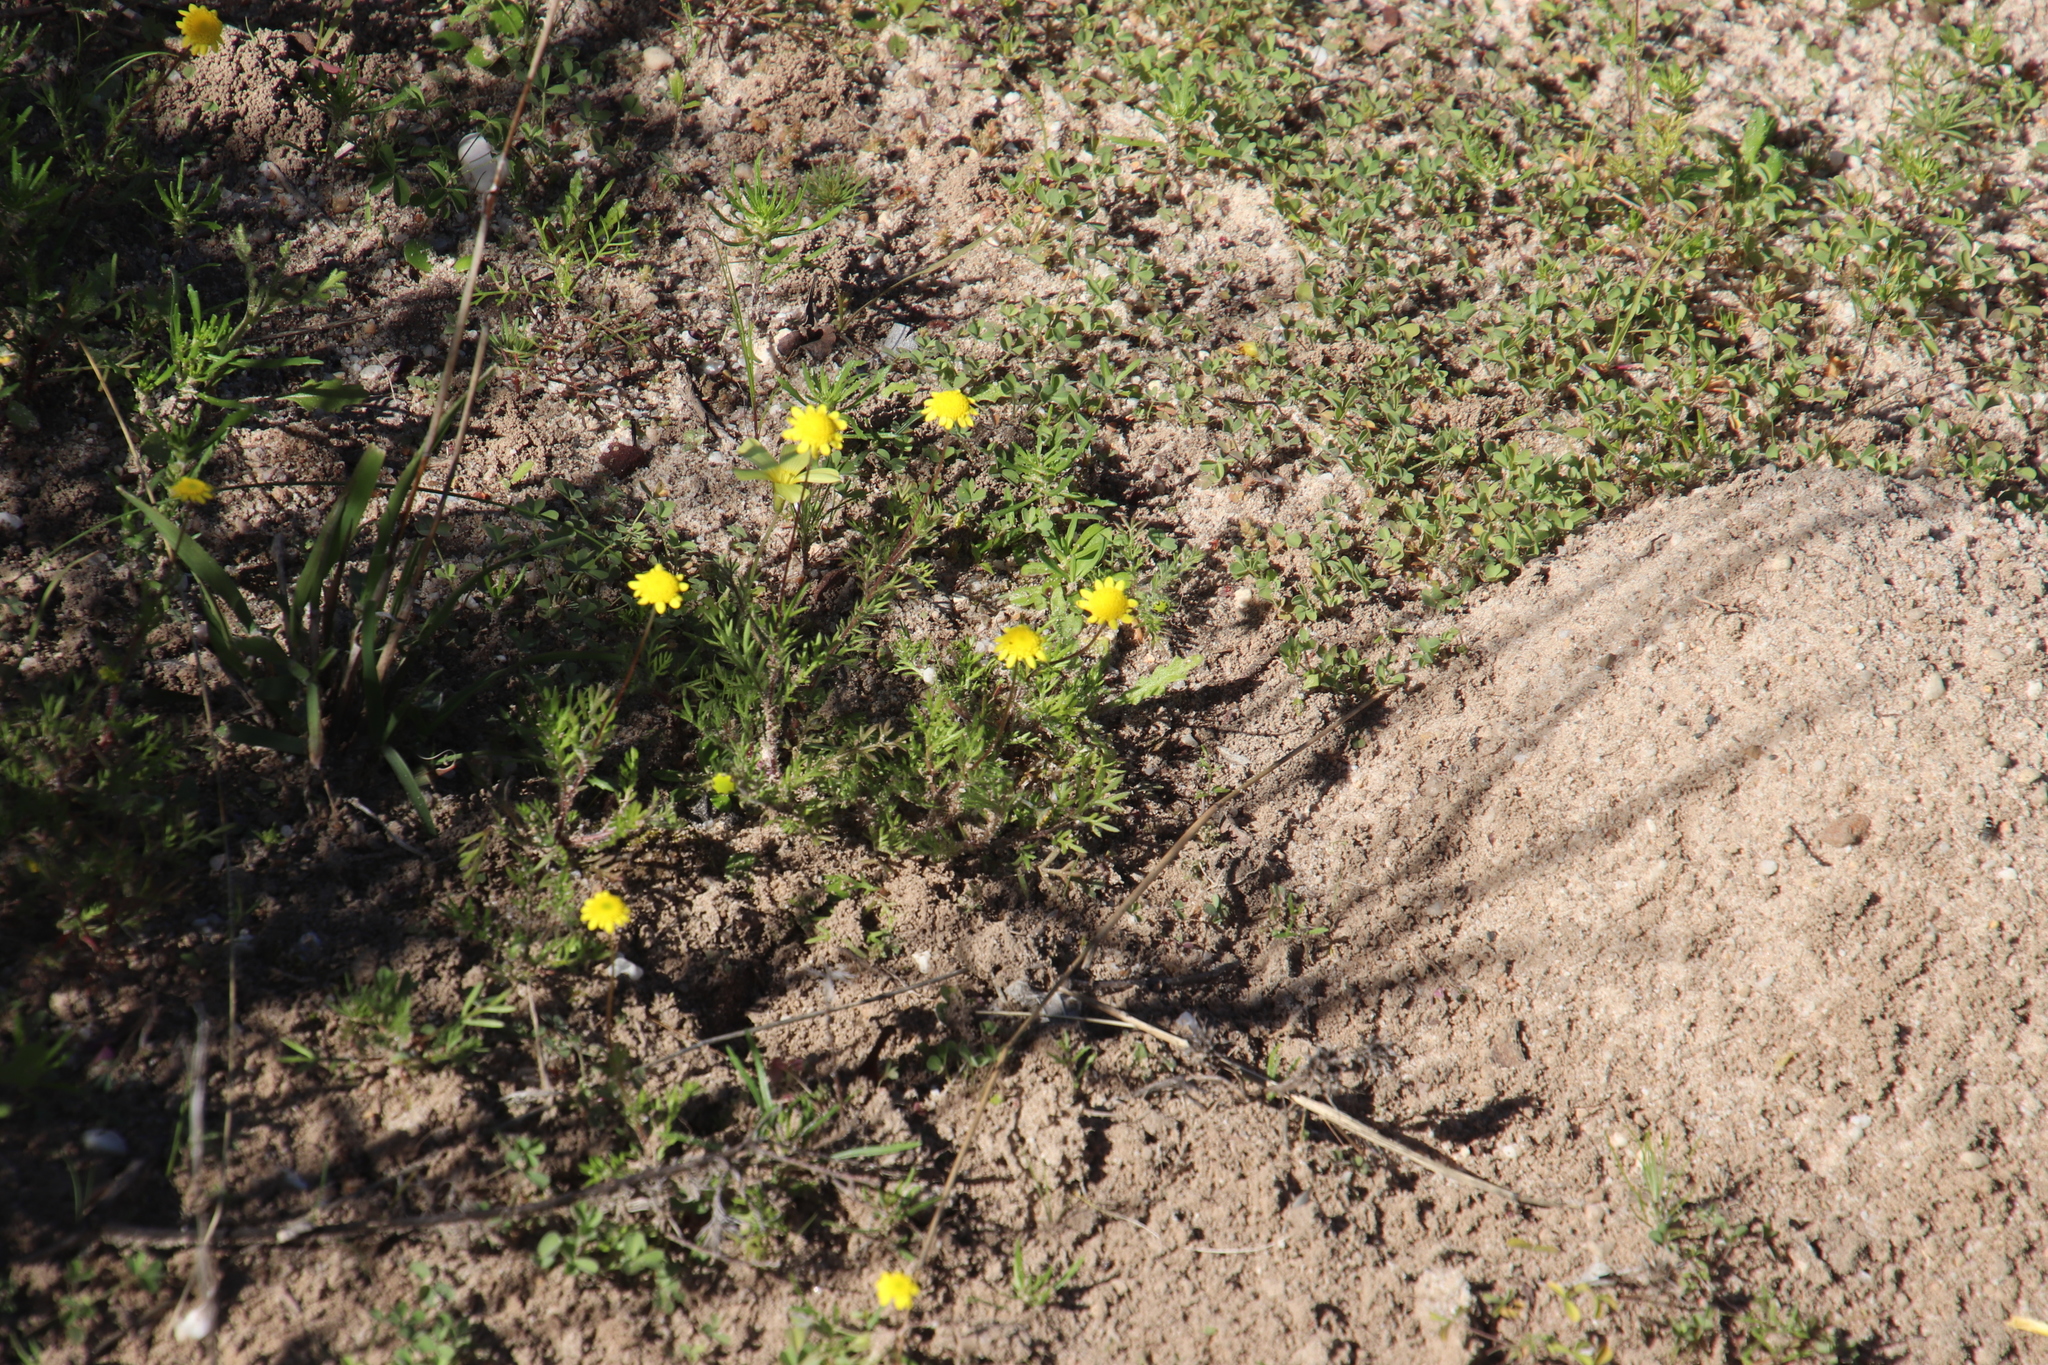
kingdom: Plantae
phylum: Tracheophyta
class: Magnoliopsida
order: Asterales
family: Asteraceae
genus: Cotula
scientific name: Cotula pruinosa
